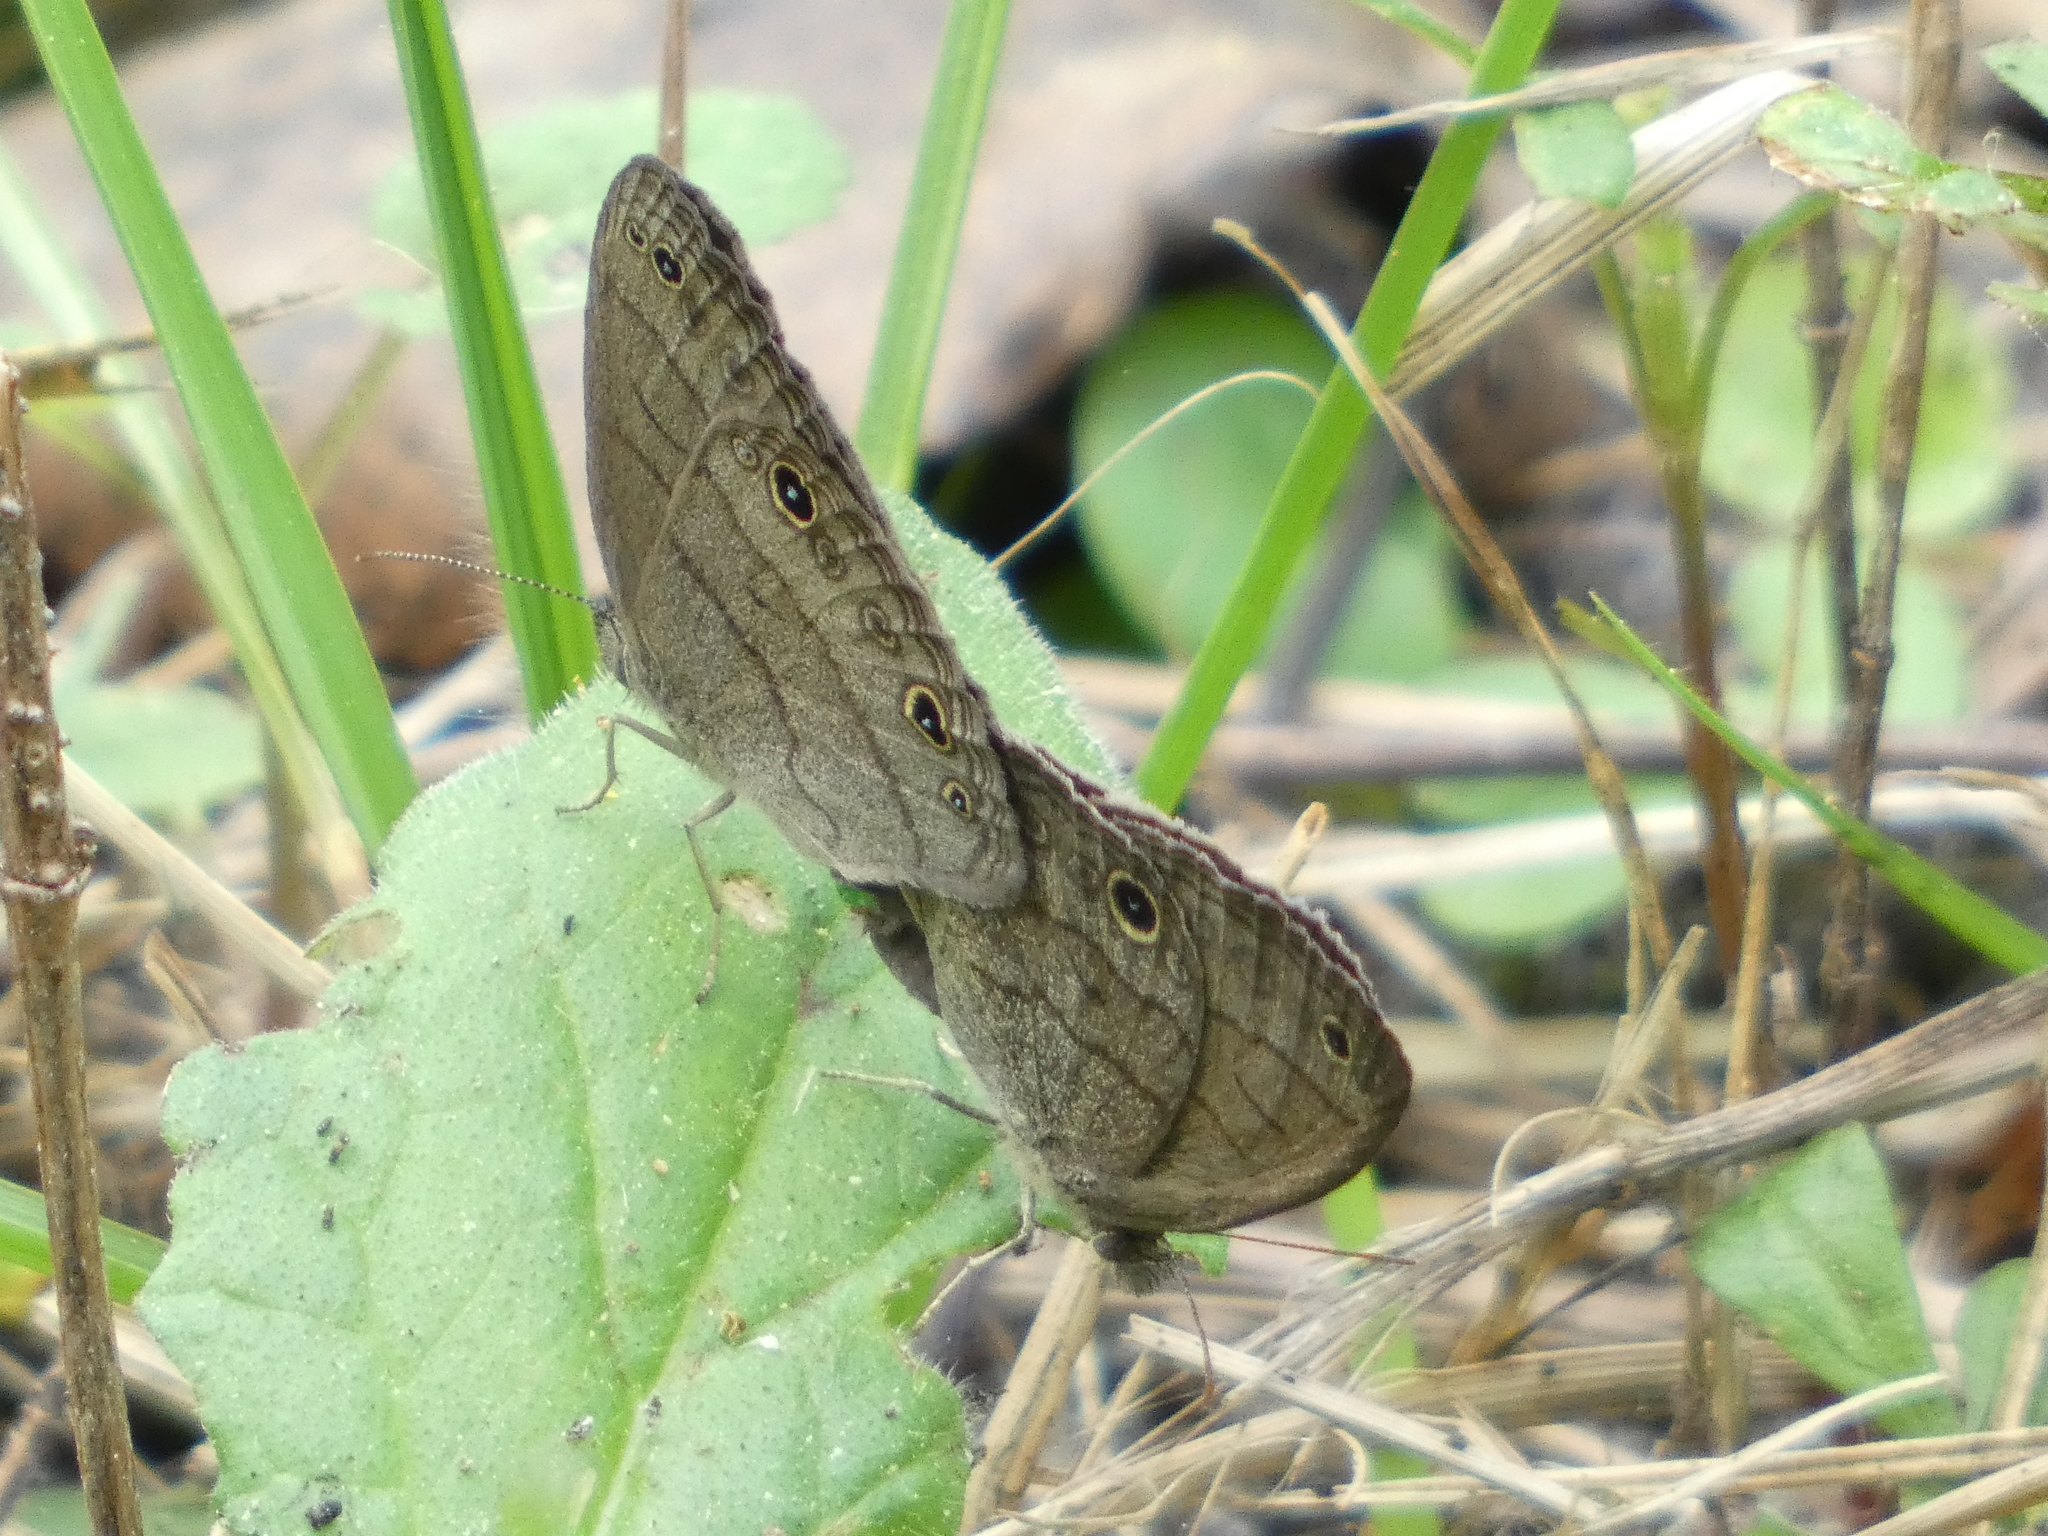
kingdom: Animalia
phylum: Arthropoda
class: Insecta
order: Lepidoptera
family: Nymphalidae
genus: Hermeuptychia
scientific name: Hermeuptychia hermes
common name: Hermes satyr
